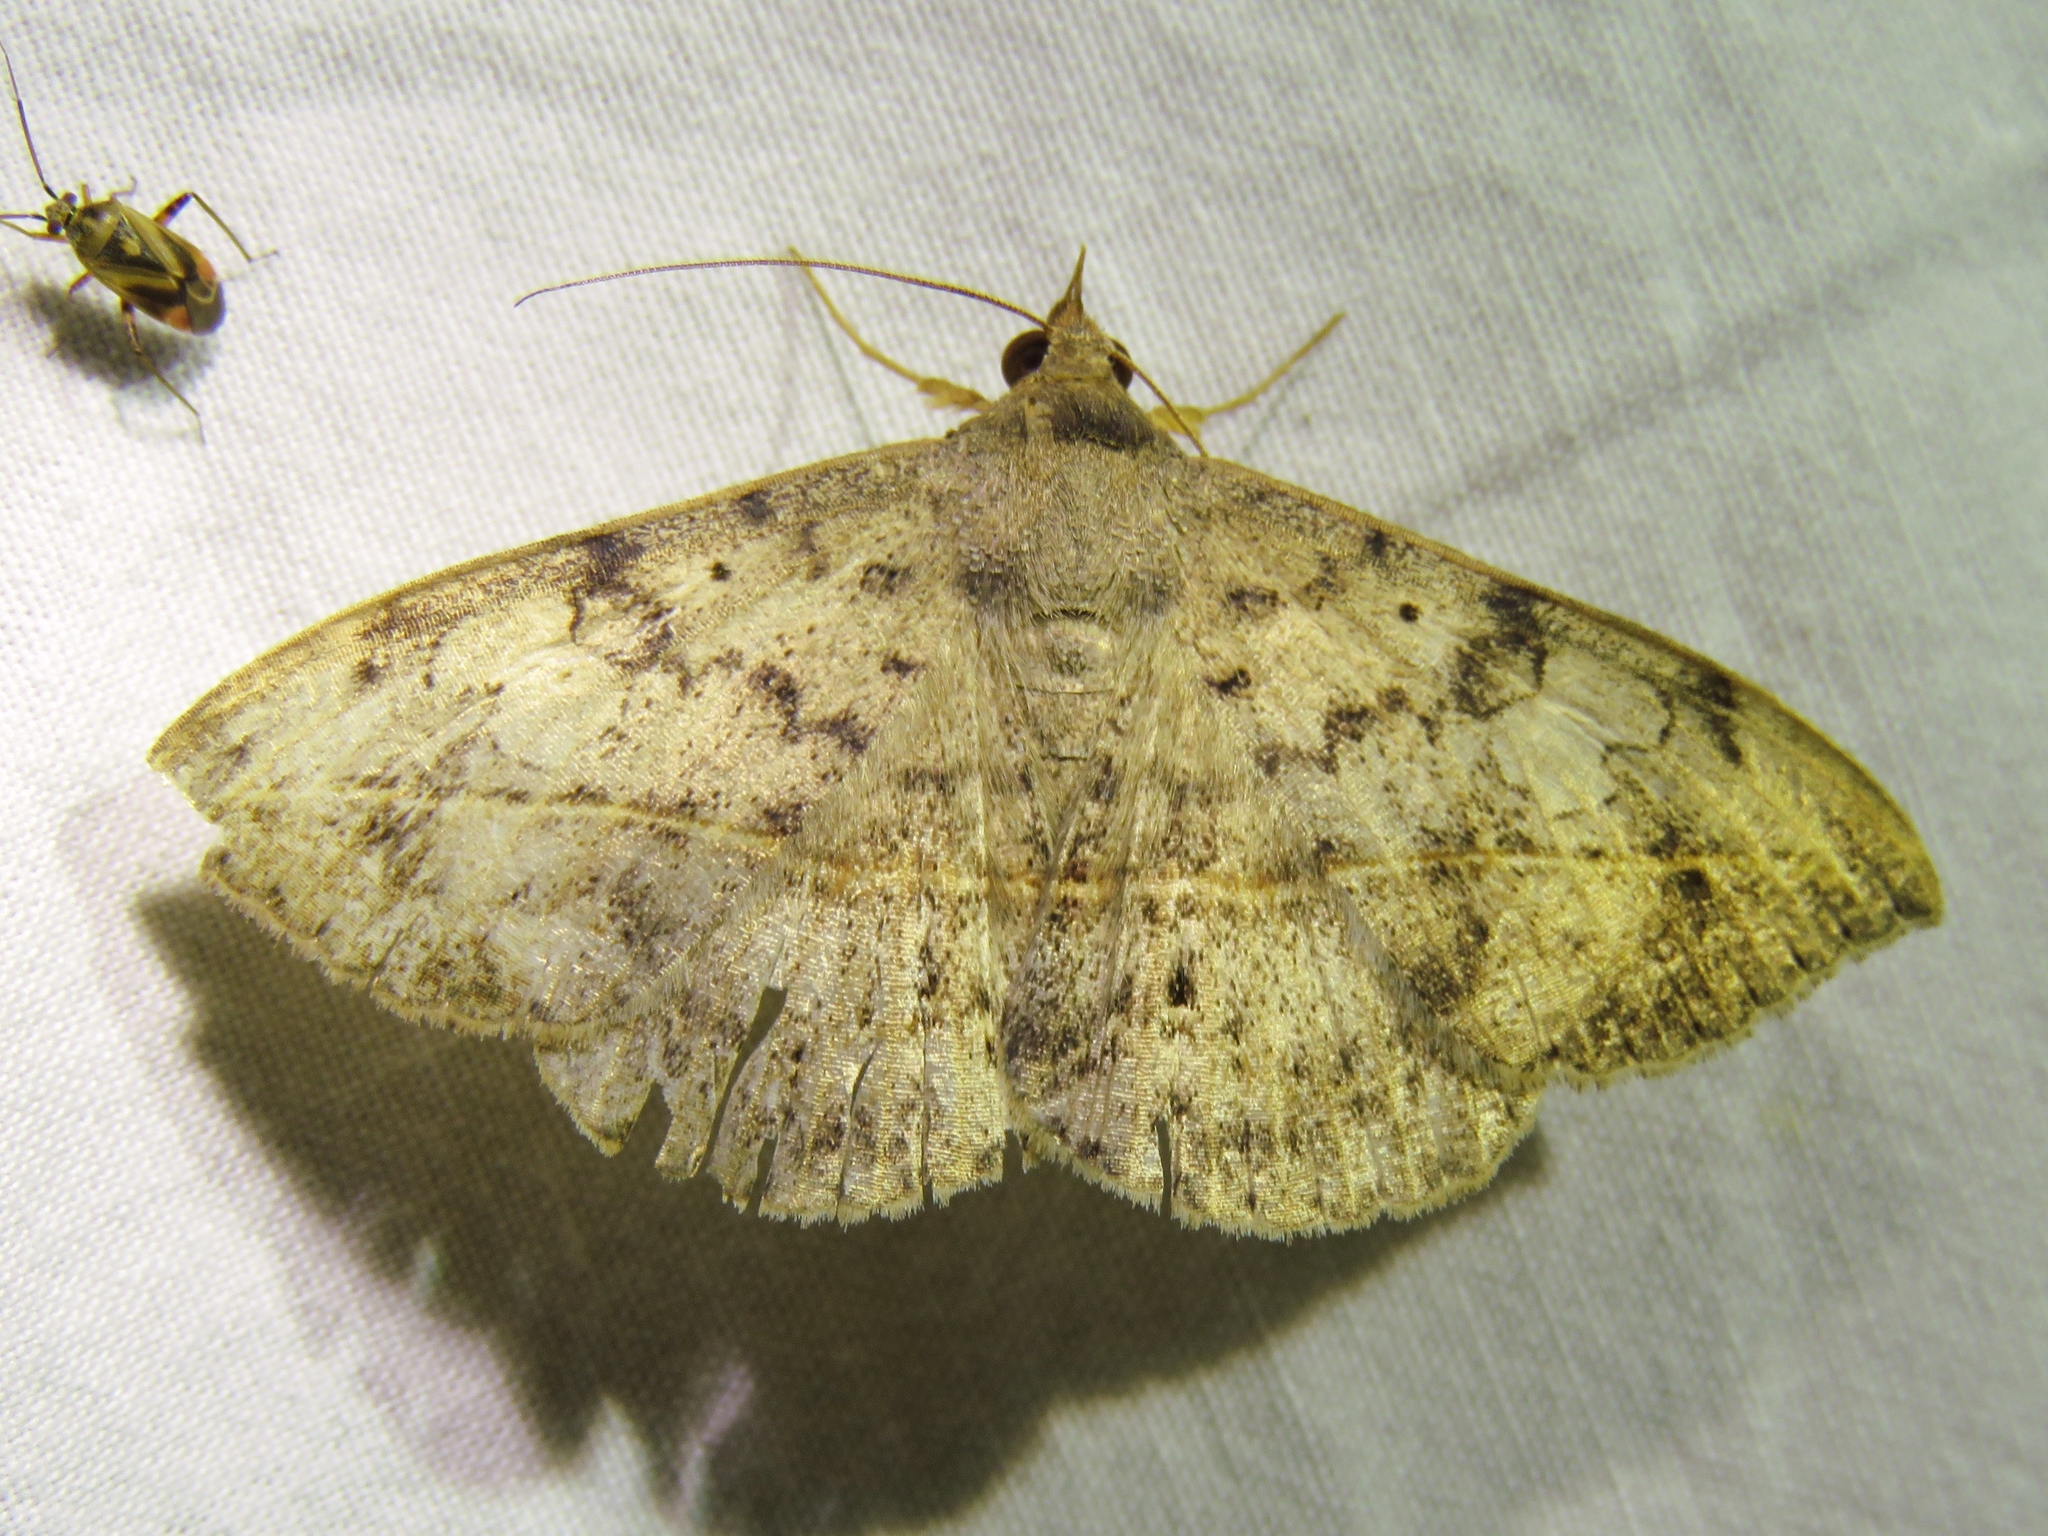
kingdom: Animalia
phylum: Arthropoda
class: Insecta
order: Lepidoptera
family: Erebidae
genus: Anticarsia
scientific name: Anticarsia gemmatalis
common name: Cutworm moth
